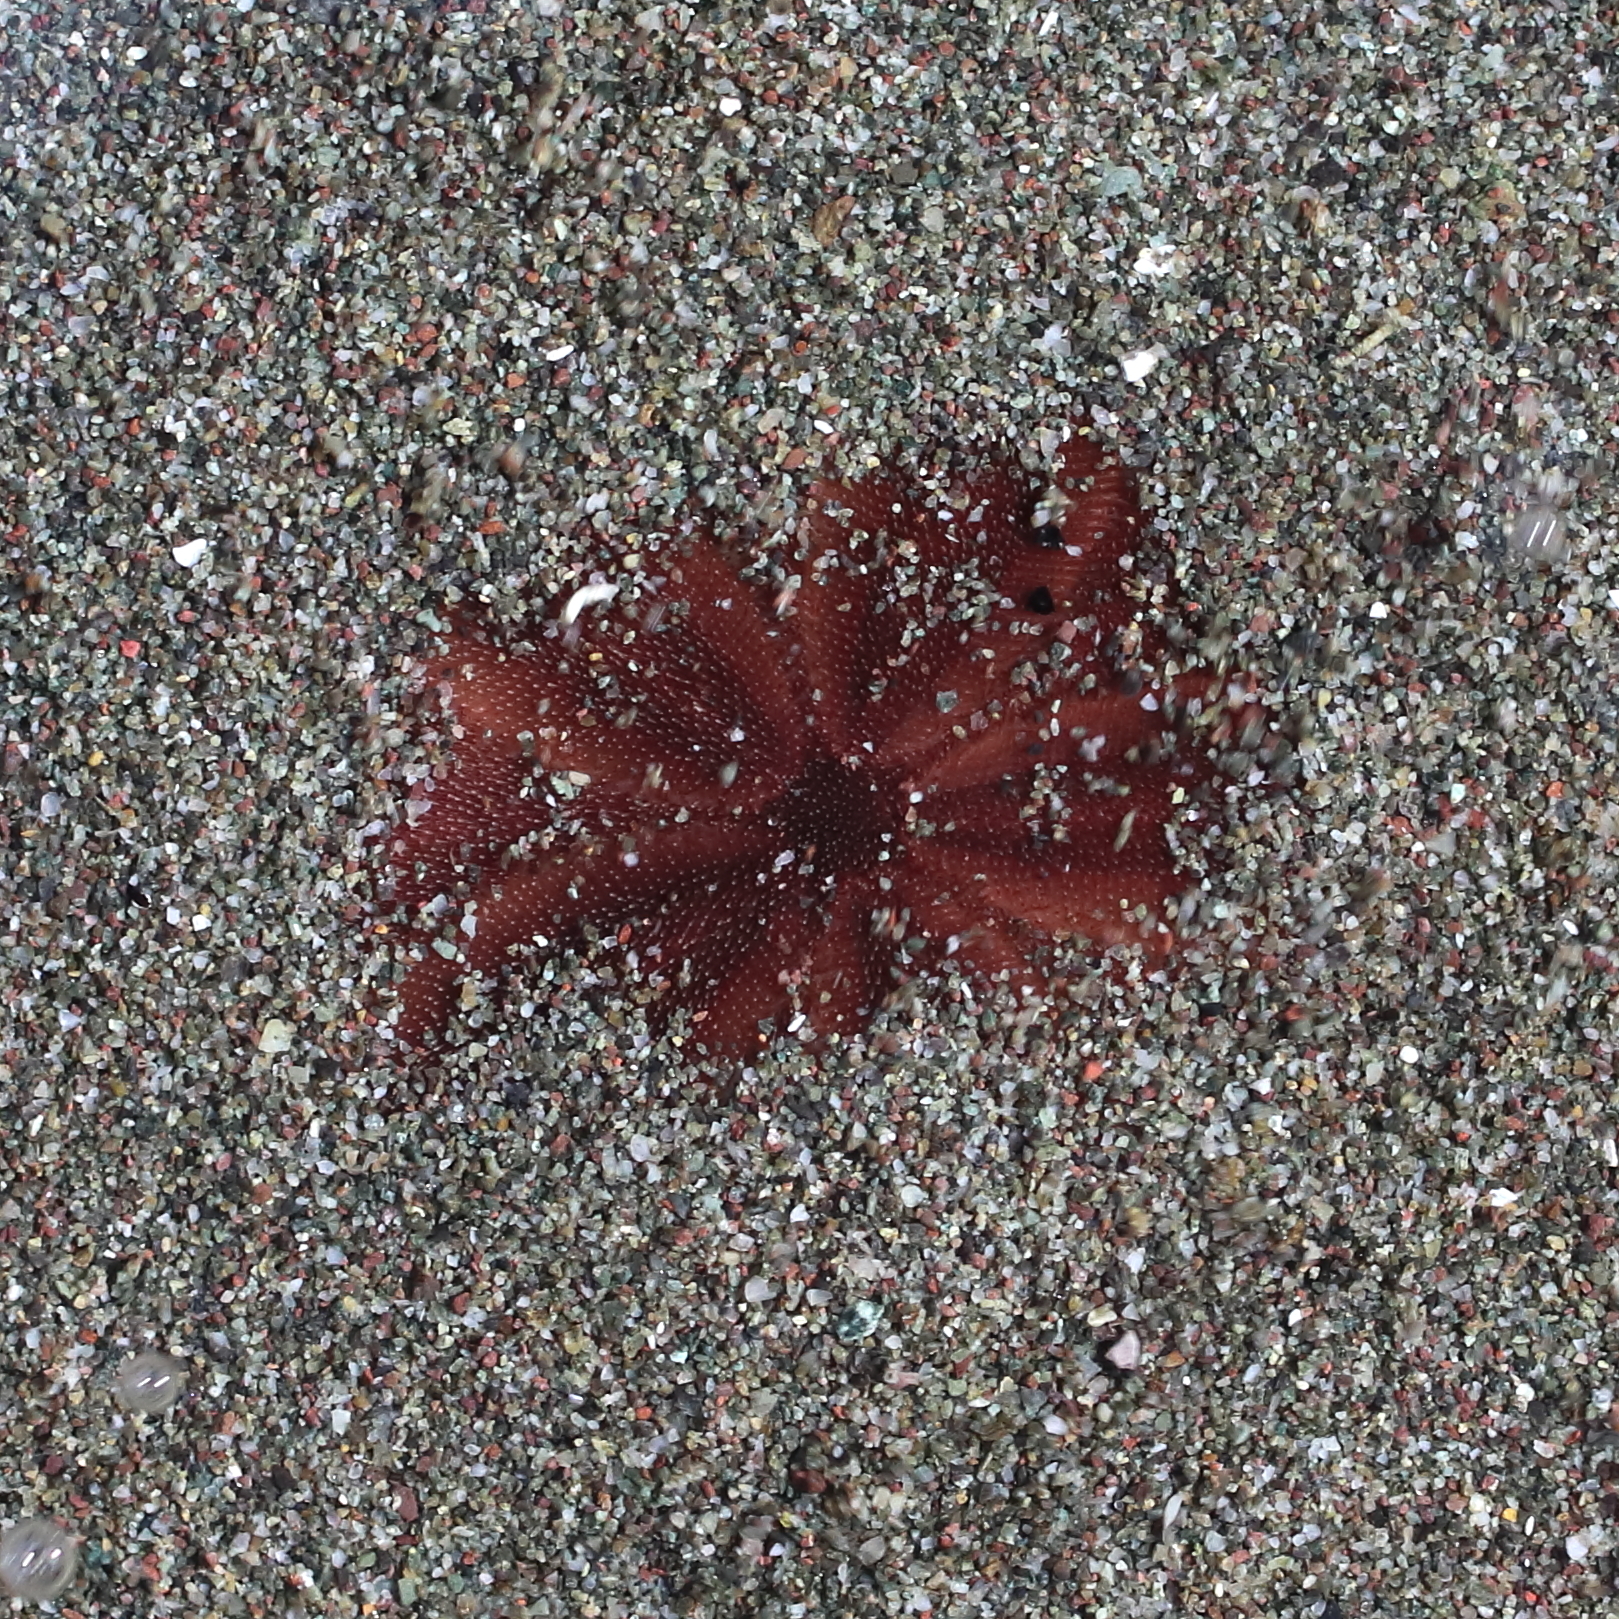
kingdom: Animalia
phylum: Echinodermata
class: Echinoidea
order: Echinolampadacea
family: Echinarachniidae
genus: Echinarachnius
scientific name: Echinarachnius parma
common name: Common sand dollar
